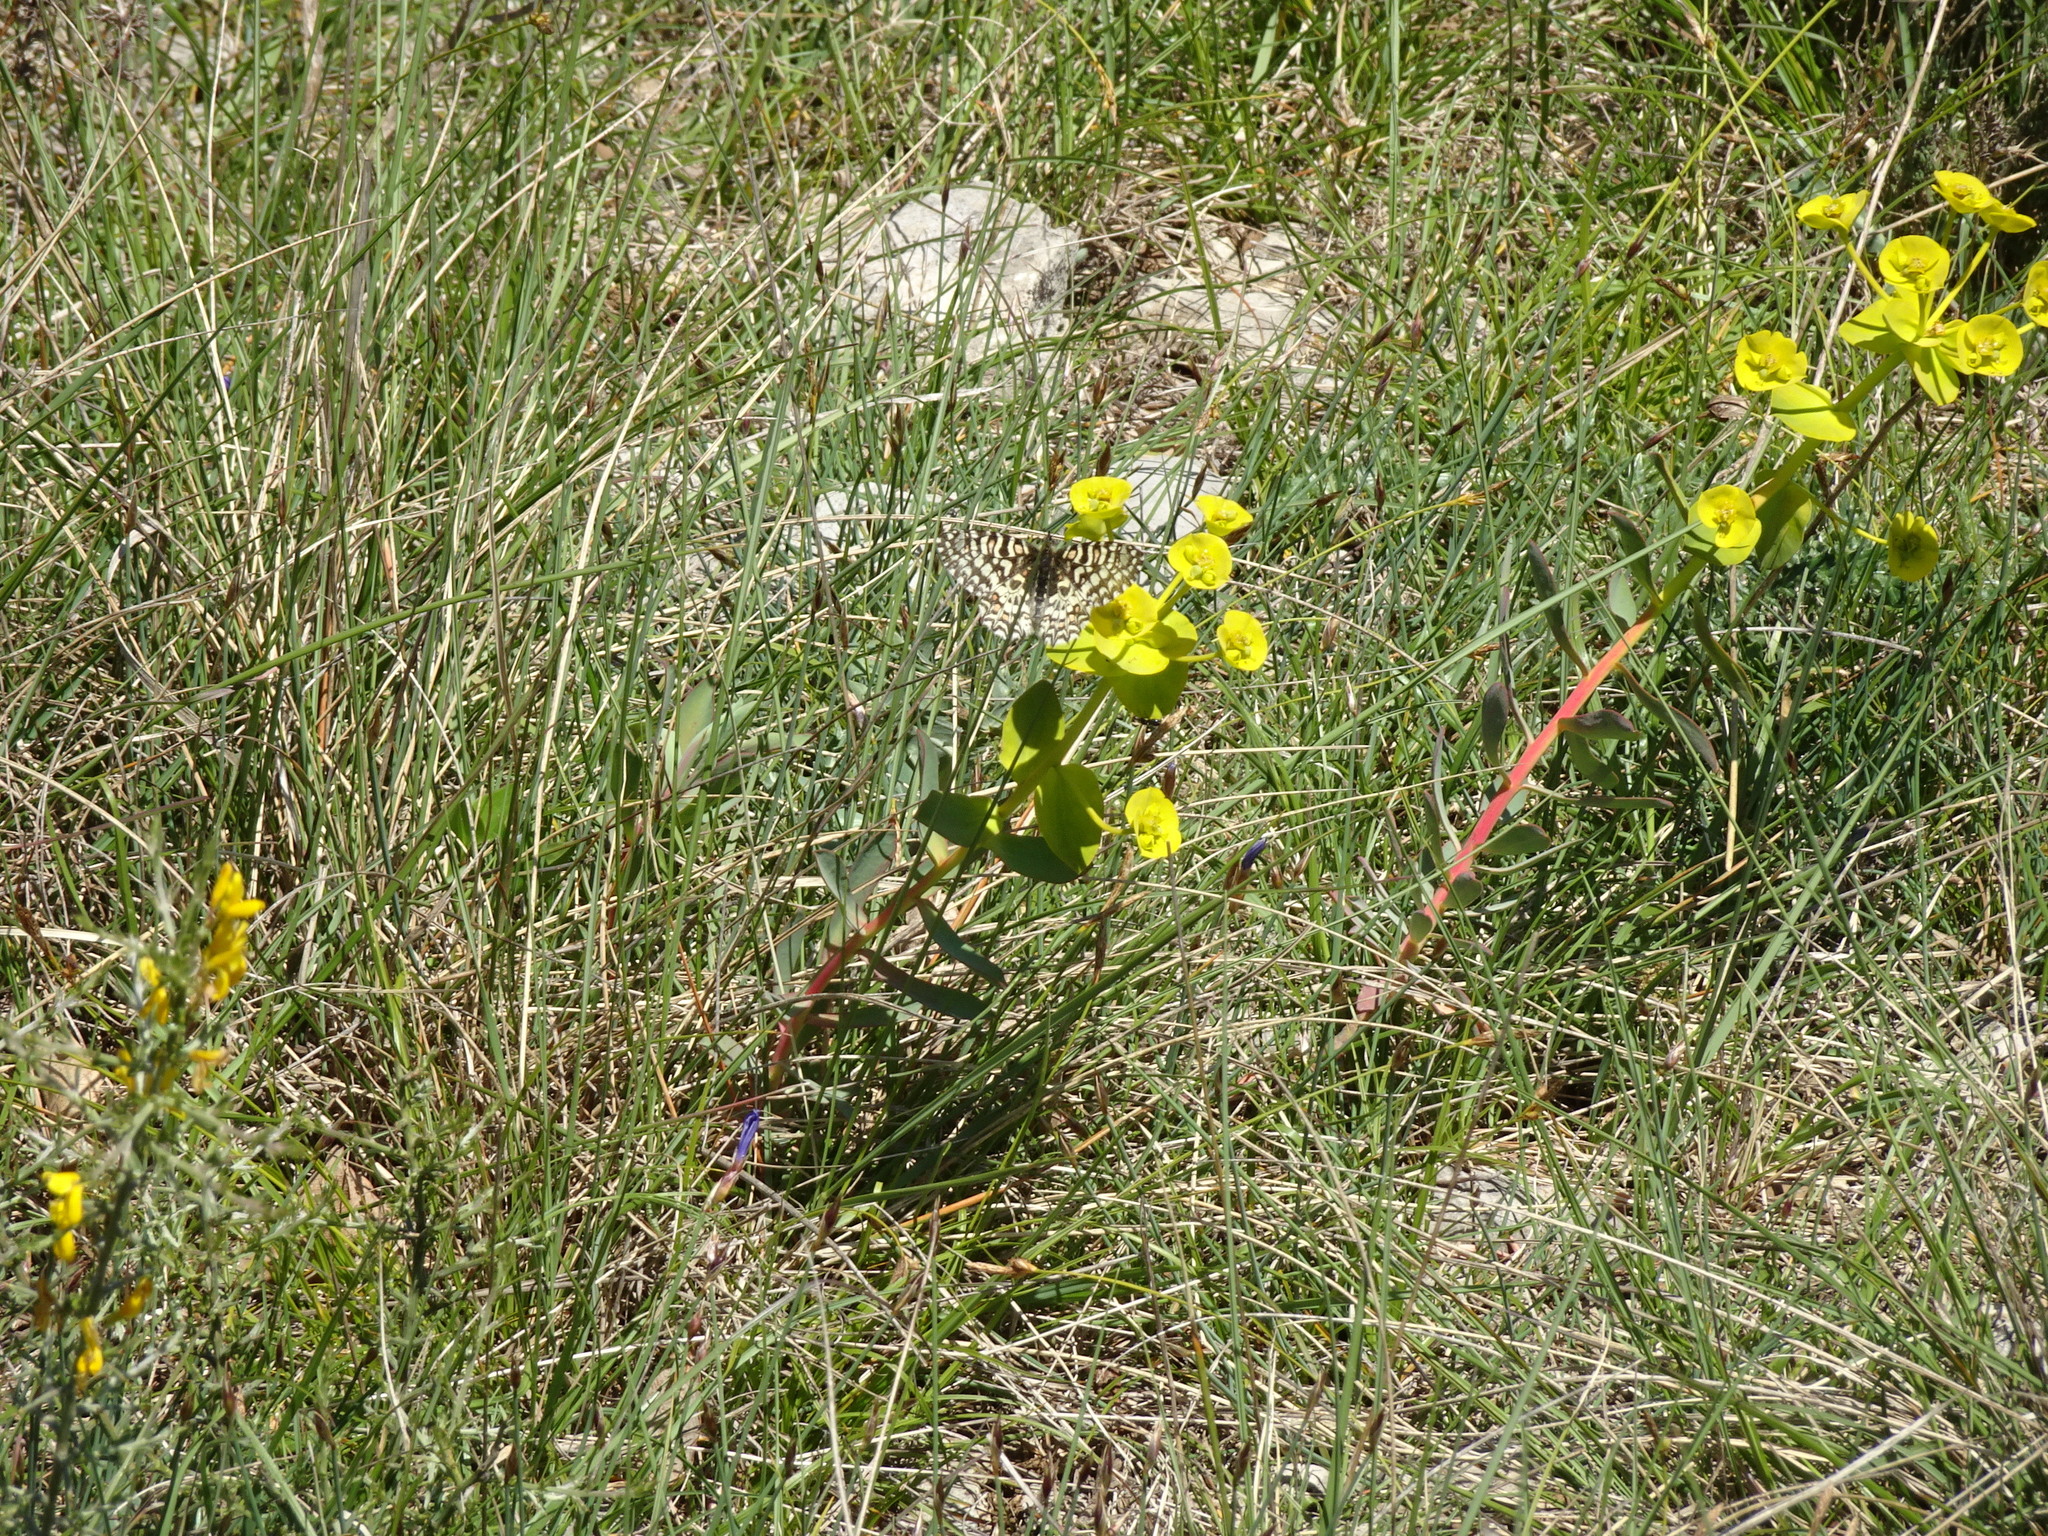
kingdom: Animalia
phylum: Arthropoda
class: Insecta
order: Lepidoptera
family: Papilionidae
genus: Zerynthia
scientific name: Zerynthia rumina
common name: Spanish festoon
